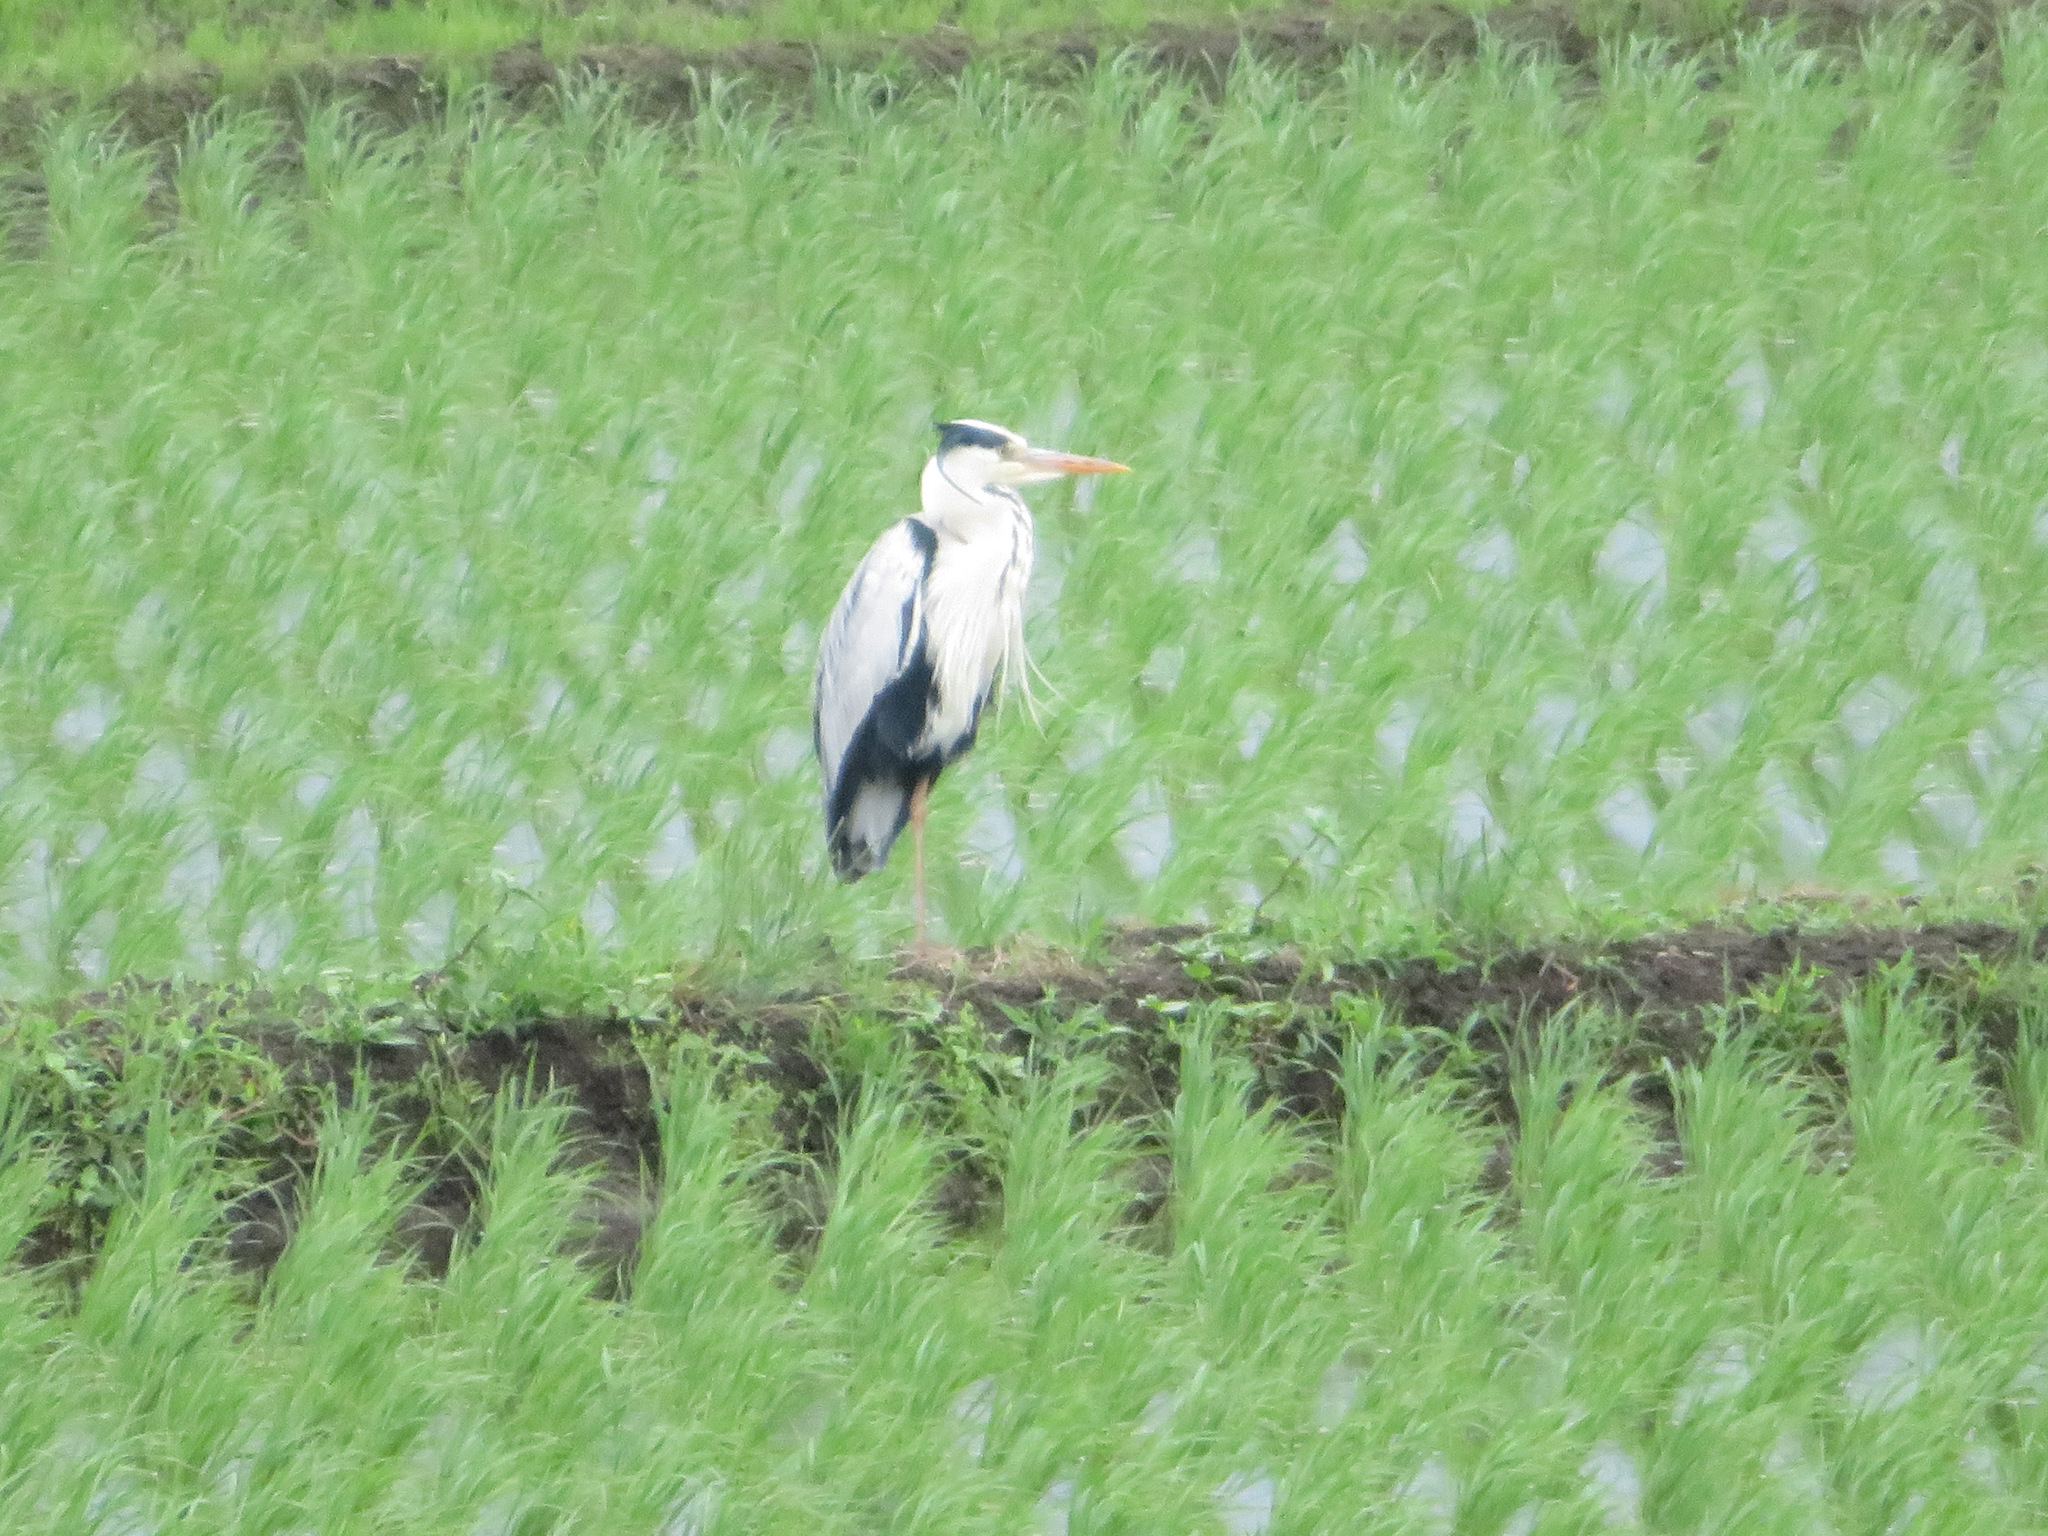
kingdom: Animalia
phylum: Chordata
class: Aves
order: Pelecaniformes
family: Ardeidae
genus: Ardea
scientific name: Ardea cinerea
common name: Grey heron
